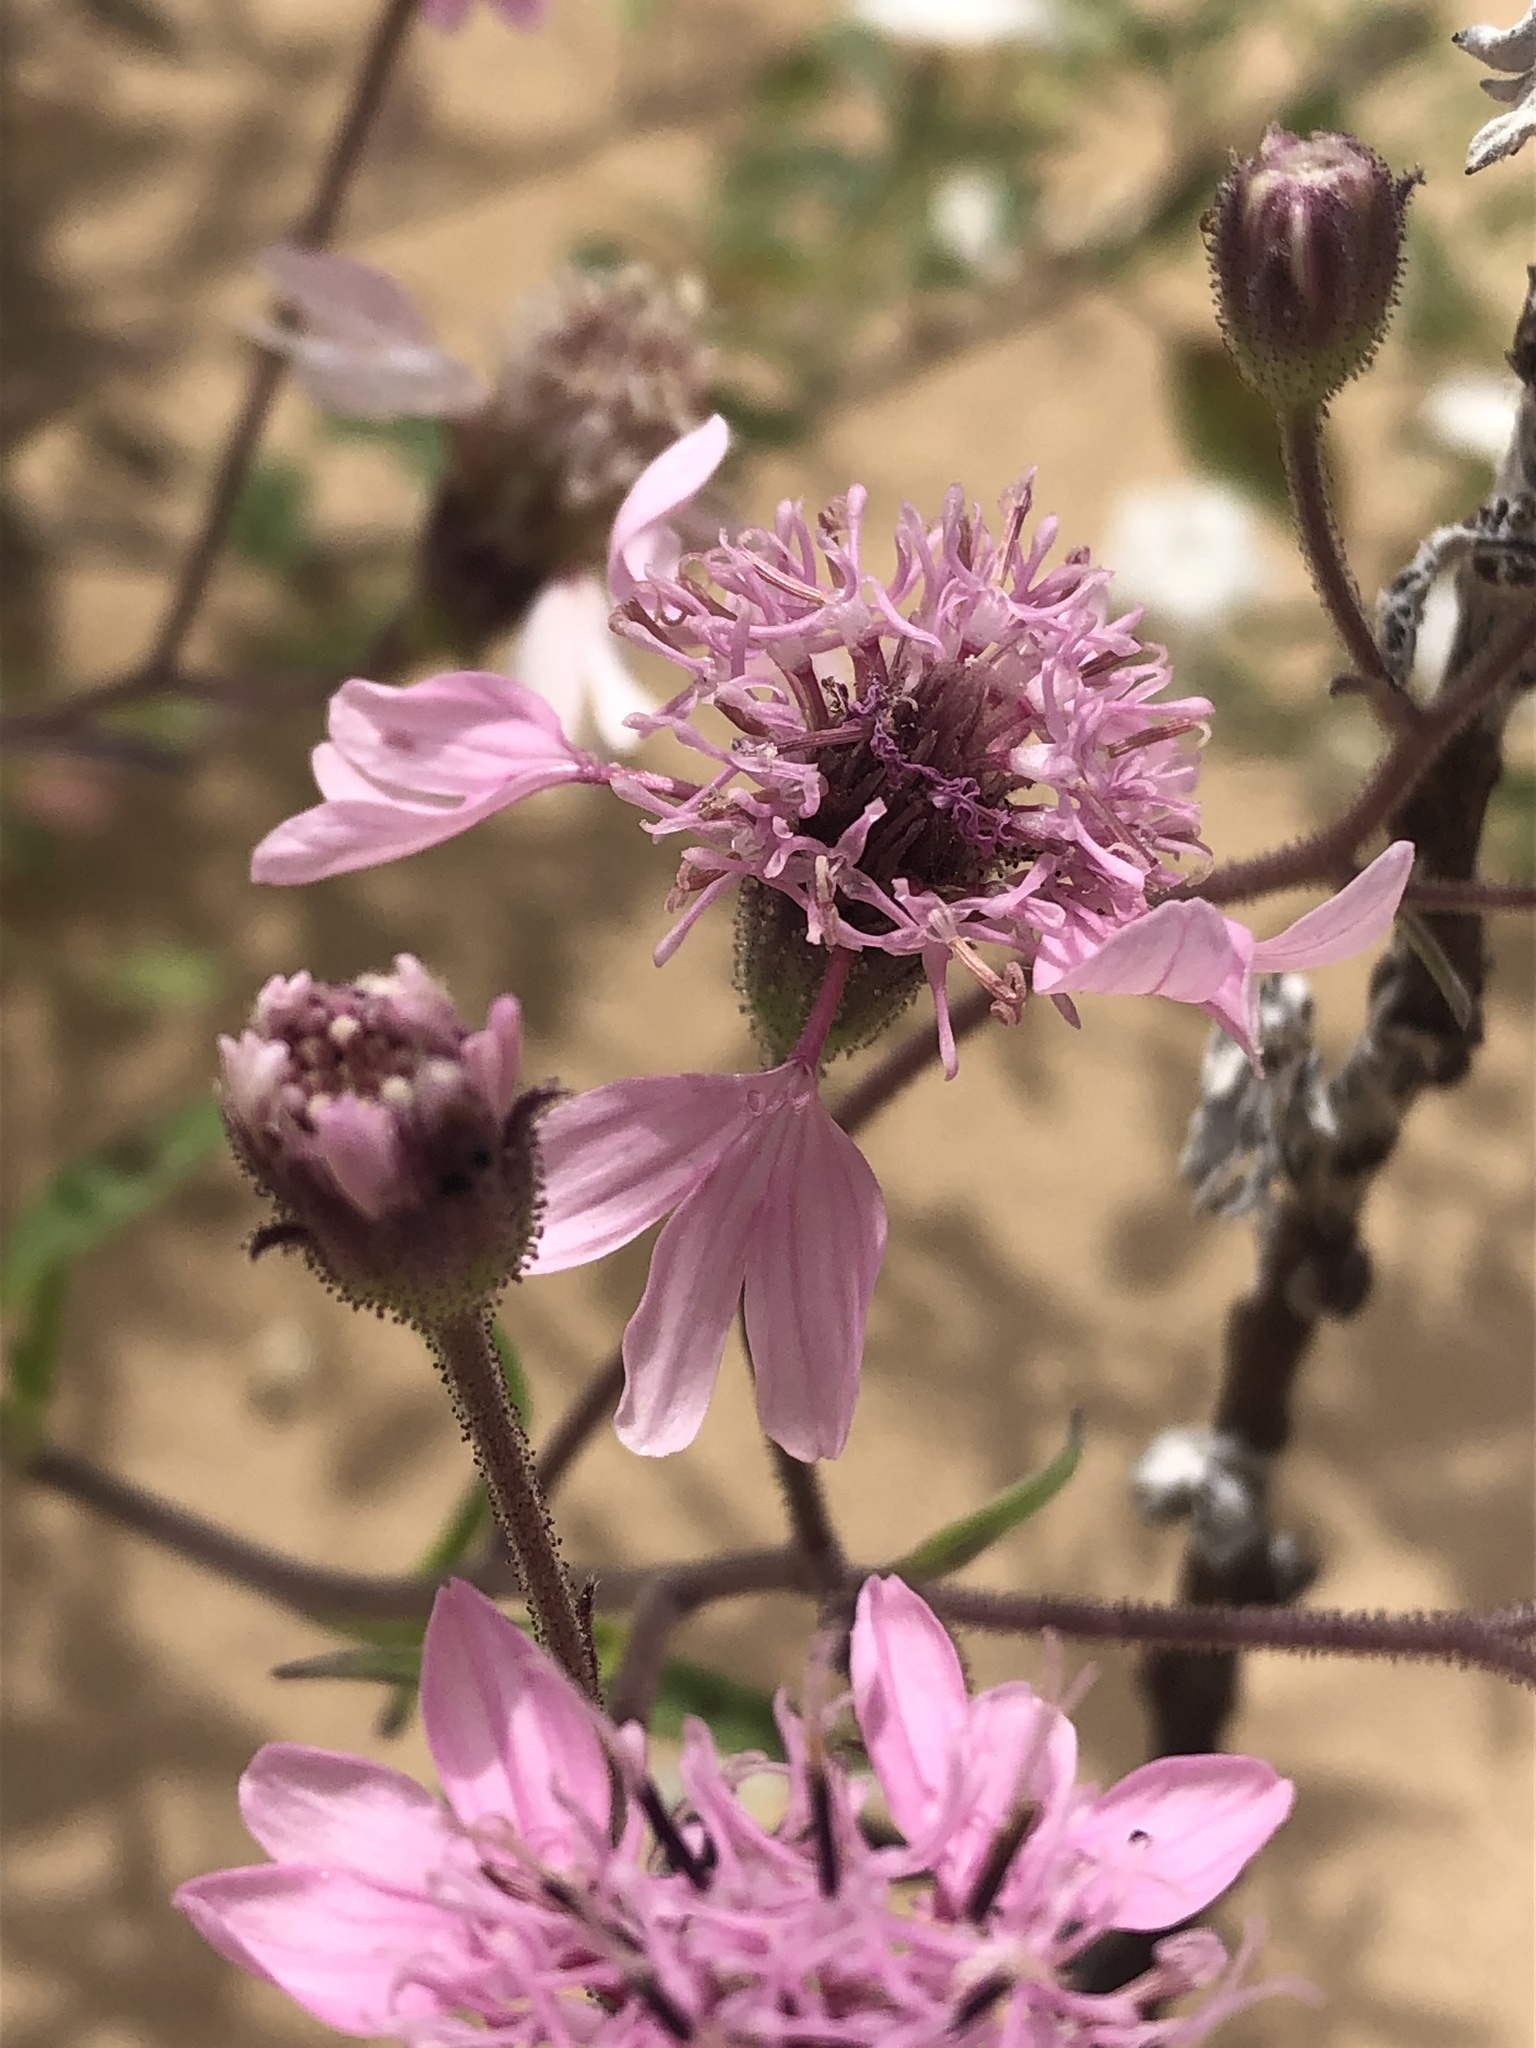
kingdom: Plantae
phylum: Tracheophyta
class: Magnoliopsida
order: Asterales
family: Asteraceae
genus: Palafoxia
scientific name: Palafoxia sphacelata
